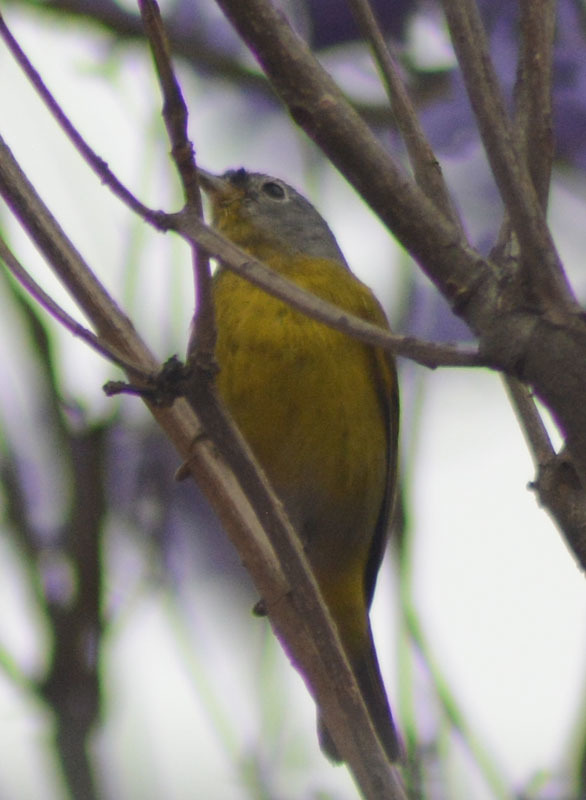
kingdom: Animalia
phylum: Chordata
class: Aves
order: Passeriformes
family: Parulidae
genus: Leiothlypis
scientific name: Leiothlypis ruficapilla
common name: Nashville warbler
